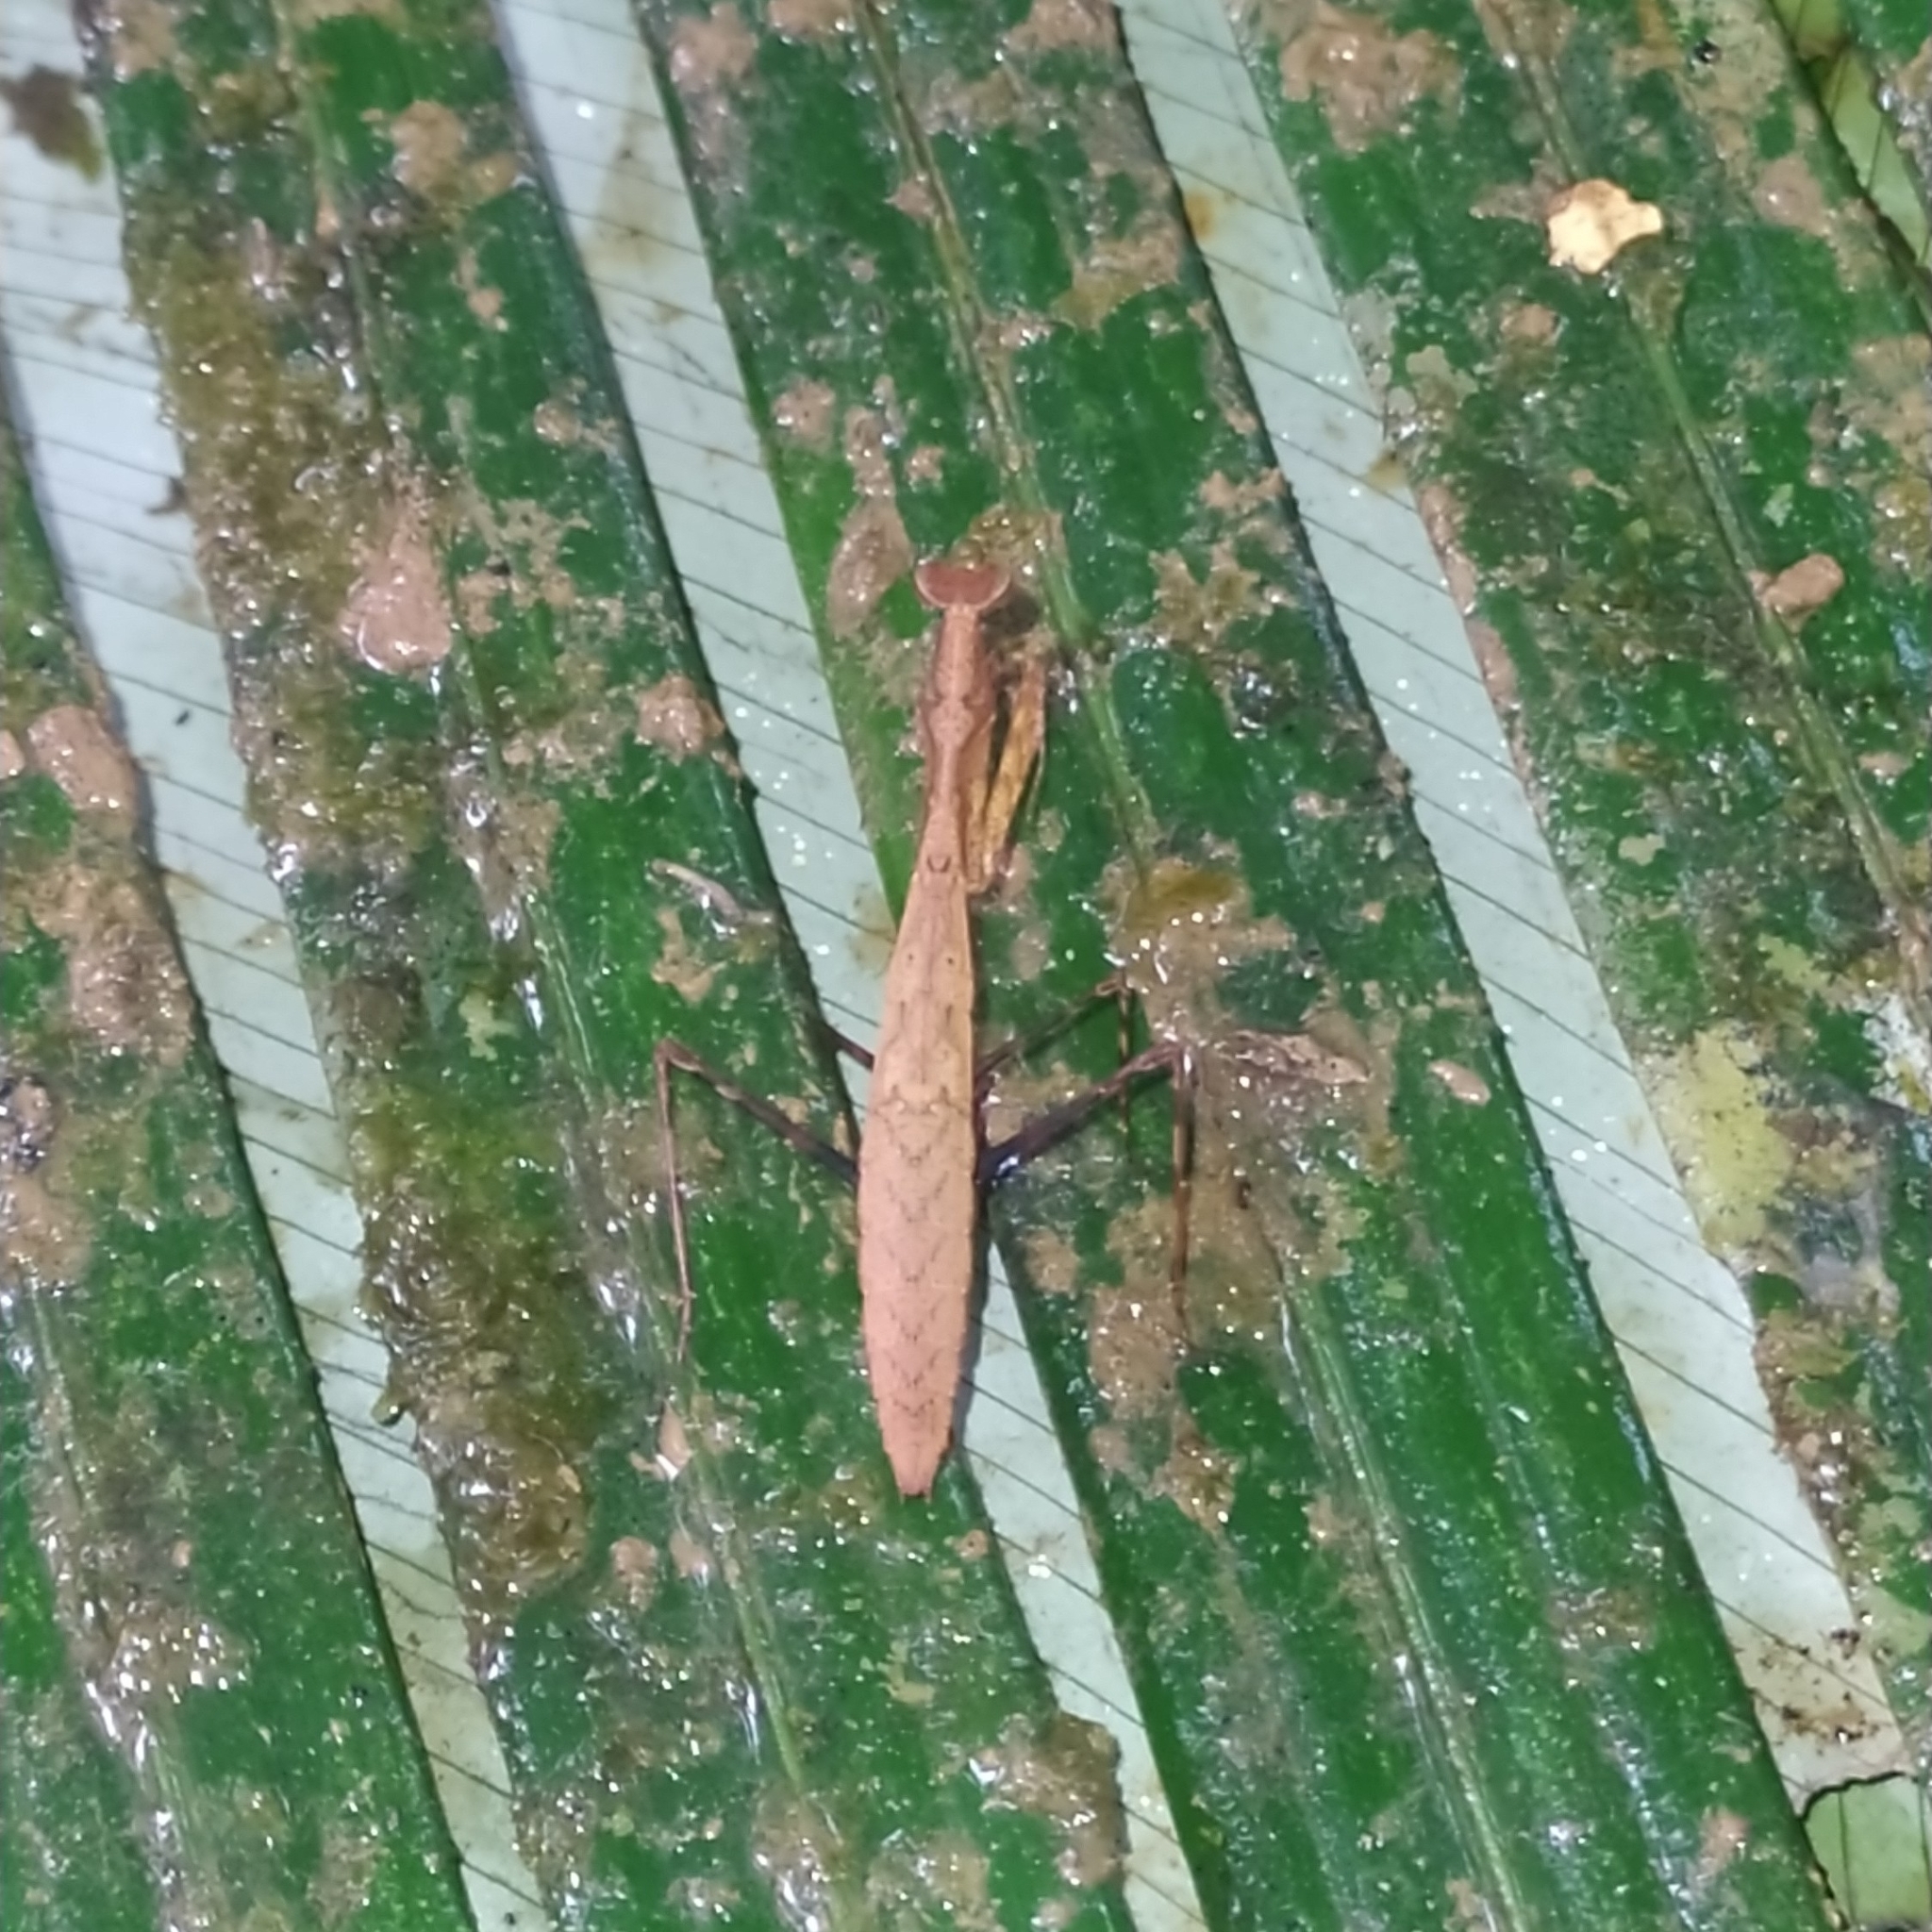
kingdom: Animalia
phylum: Arthropoda
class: Insecta
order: Mantodea
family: Thespidae
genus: Leptomiopteryx
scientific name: Leptomiopteryx dispar
